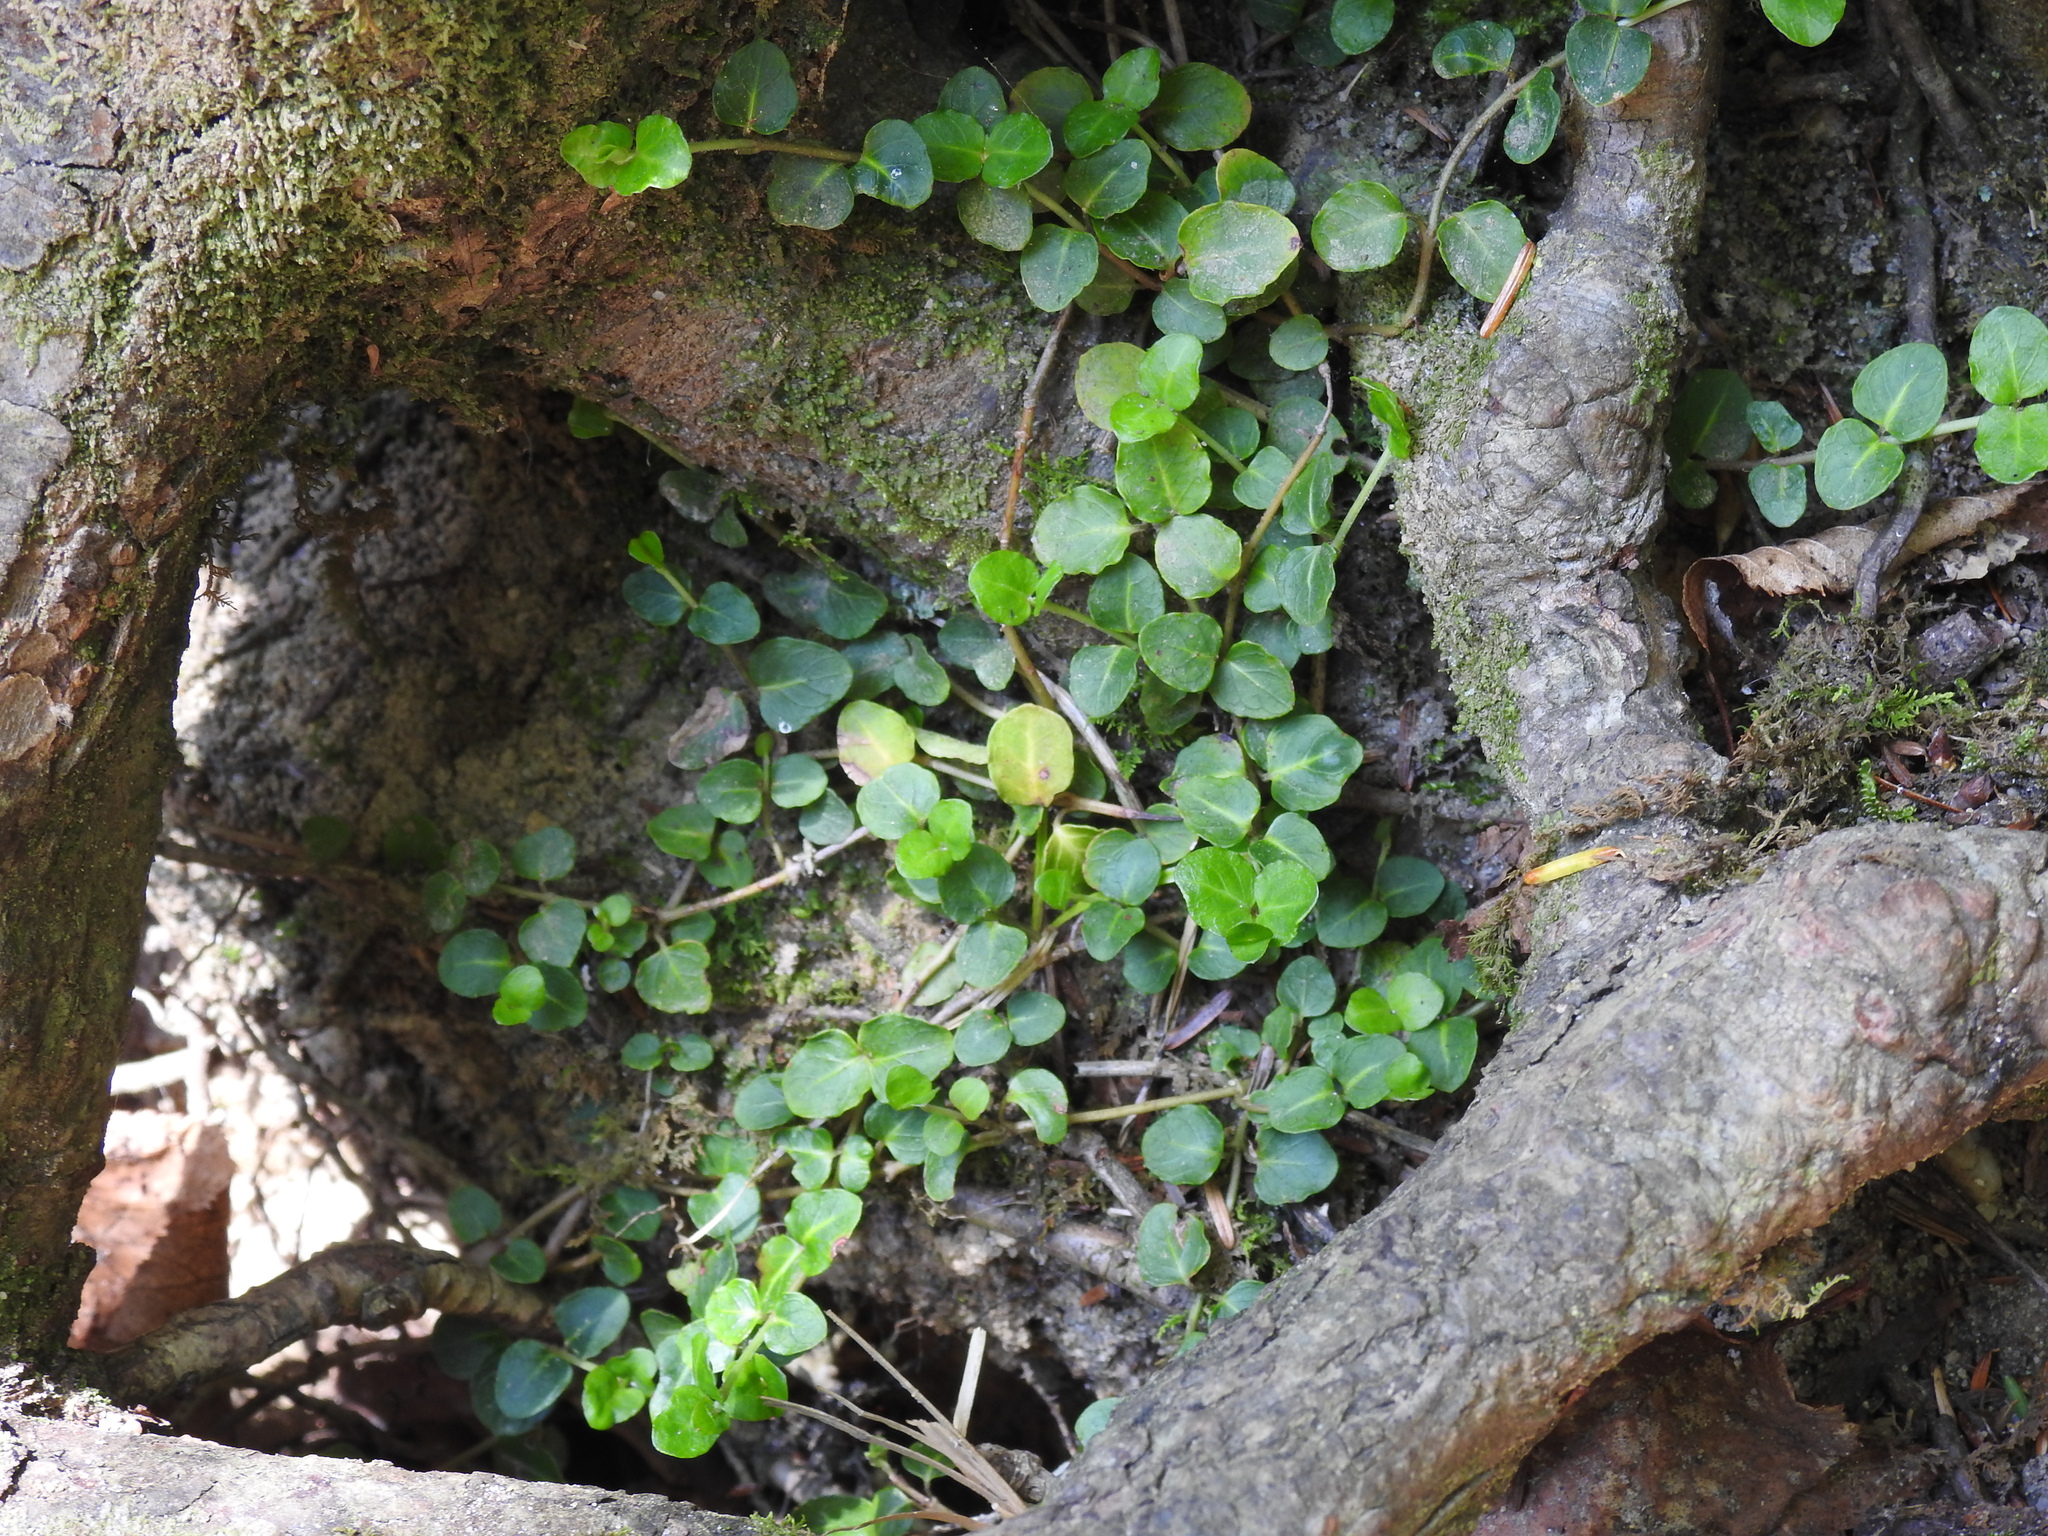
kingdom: Plantae
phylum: Tracheophyta
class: Magnoliopsida
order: Gentianales
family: Rubiaceae
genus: Mitchella
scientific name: Mitchella repens
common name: Partridge-berry
